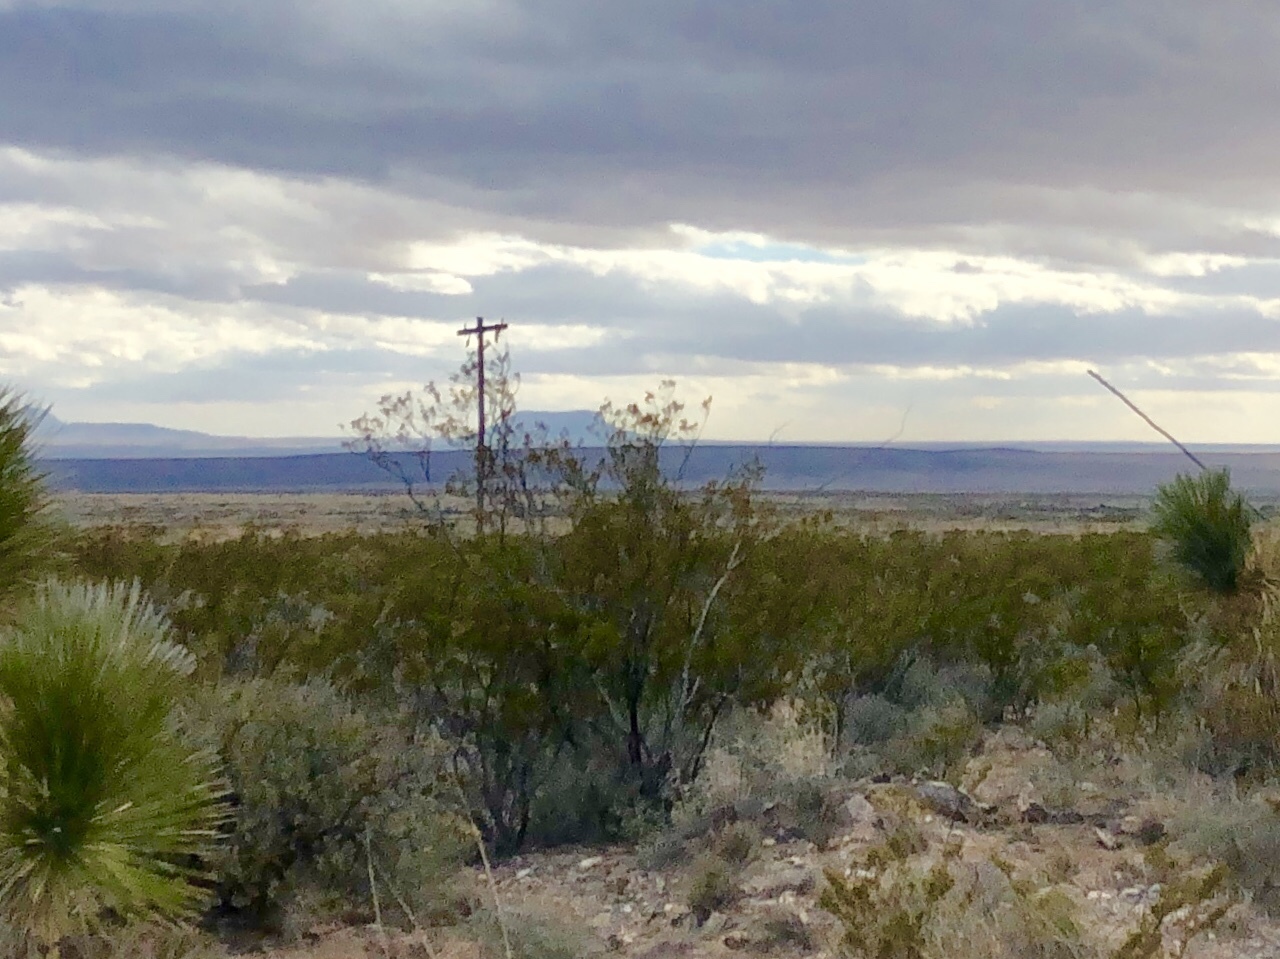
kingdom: Plantae
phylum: Tracheophyta
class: Magnoliopsida
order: Zygophyllales
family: Zygophyllaceae
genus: Larrea
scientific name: Larrea tridentata
